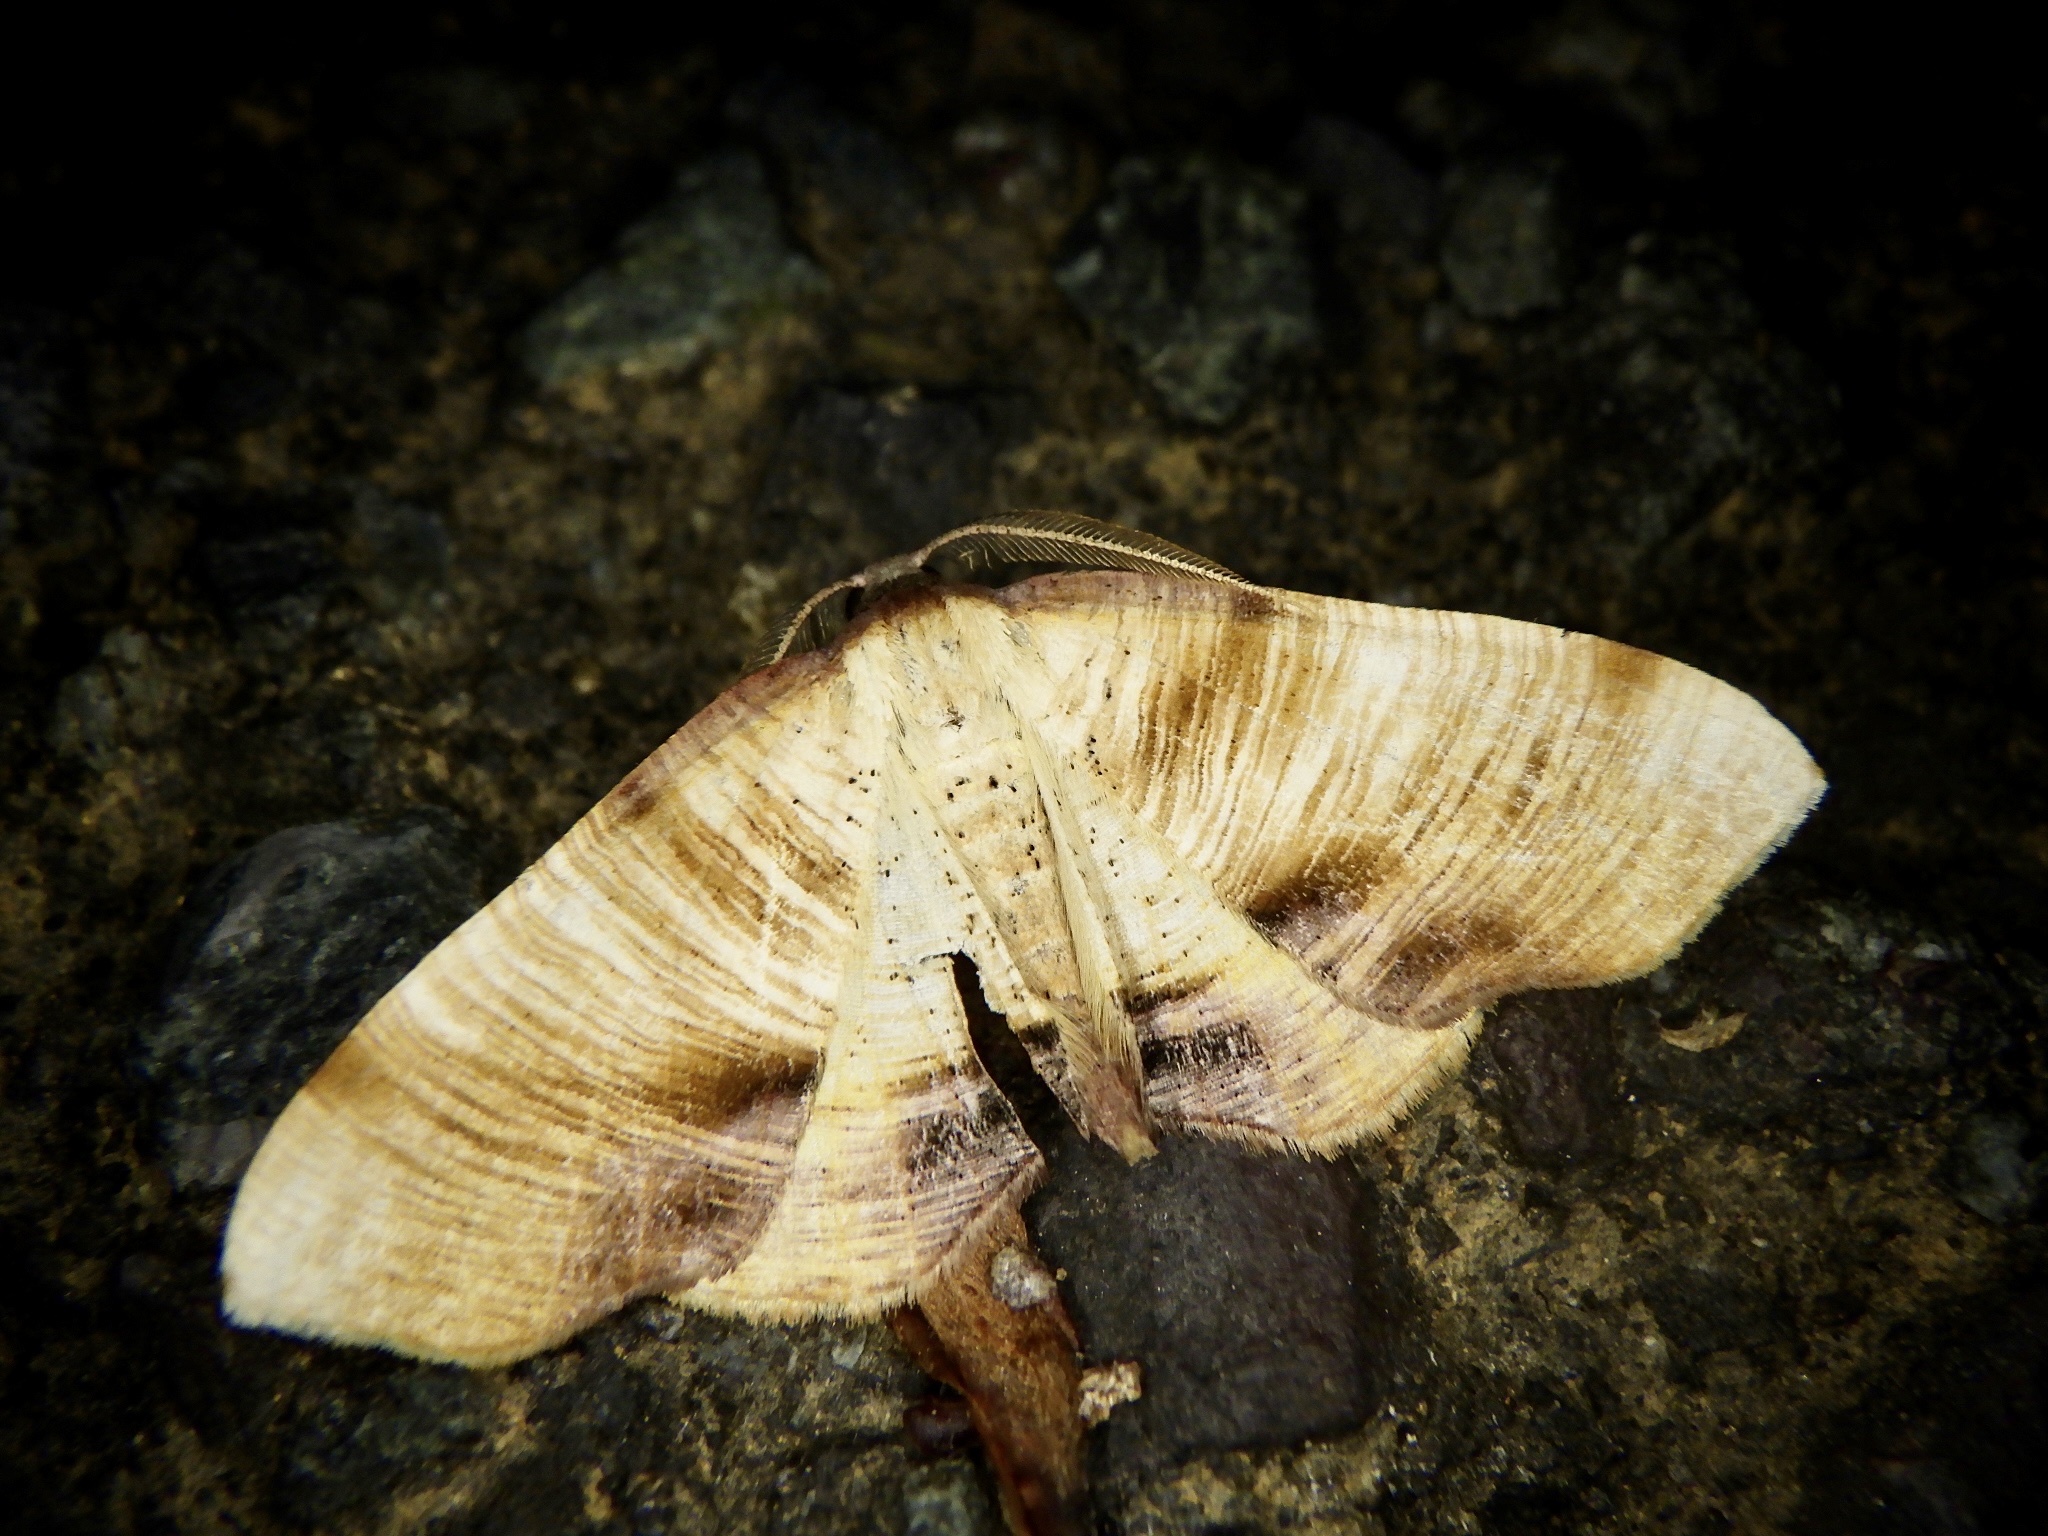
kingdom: Animalia
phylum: Arthropoda
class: Insecta
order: Lepidoptera
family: Geometridae
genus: Plagodis
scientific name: Plagodis dolabraria
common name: Scorched wing
